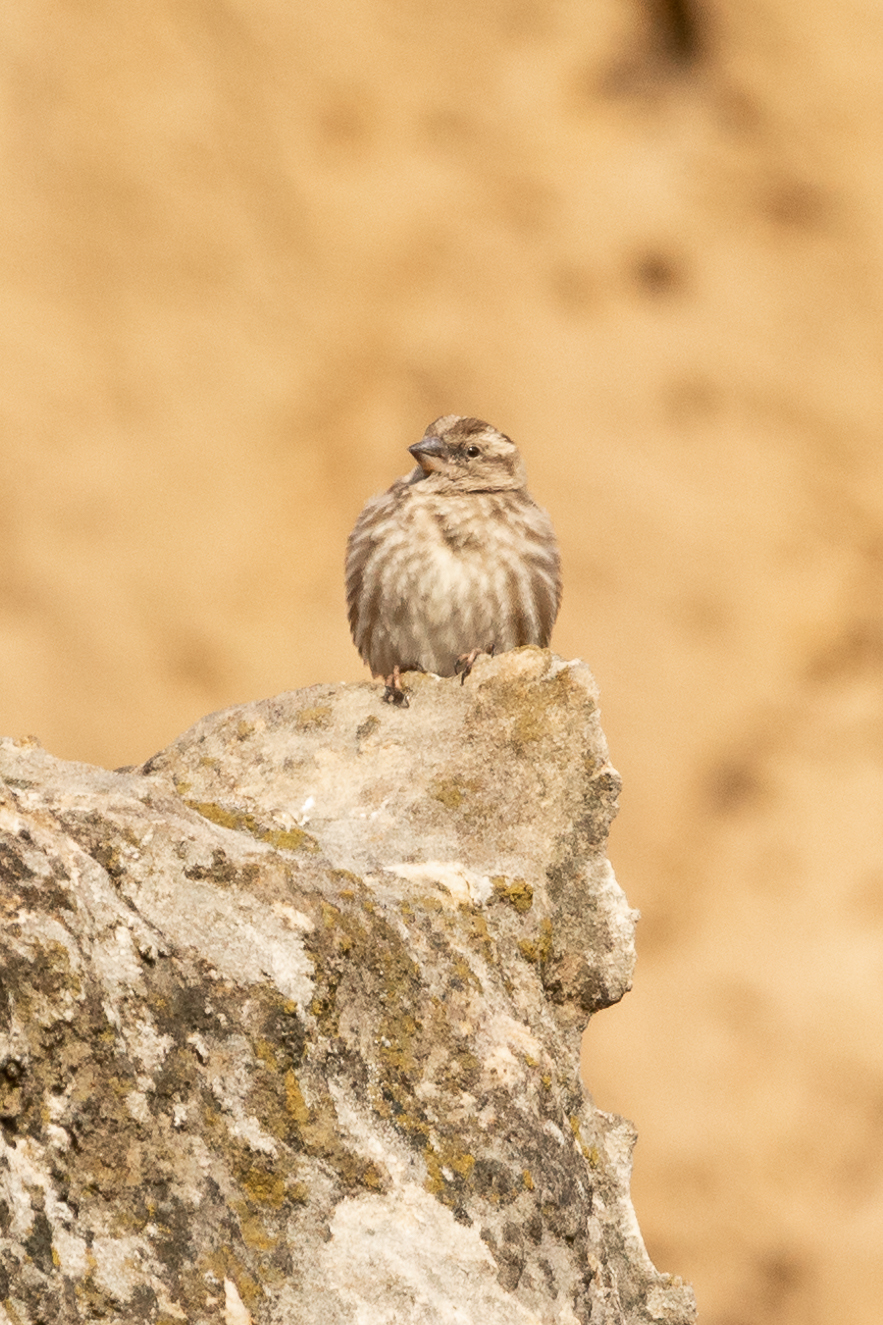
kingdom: Animalia
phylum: Chordata
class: Aves
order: Passeriformes
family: Passeridae
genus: Petronia
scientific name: Petronia petronia
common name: Rock sparrow
